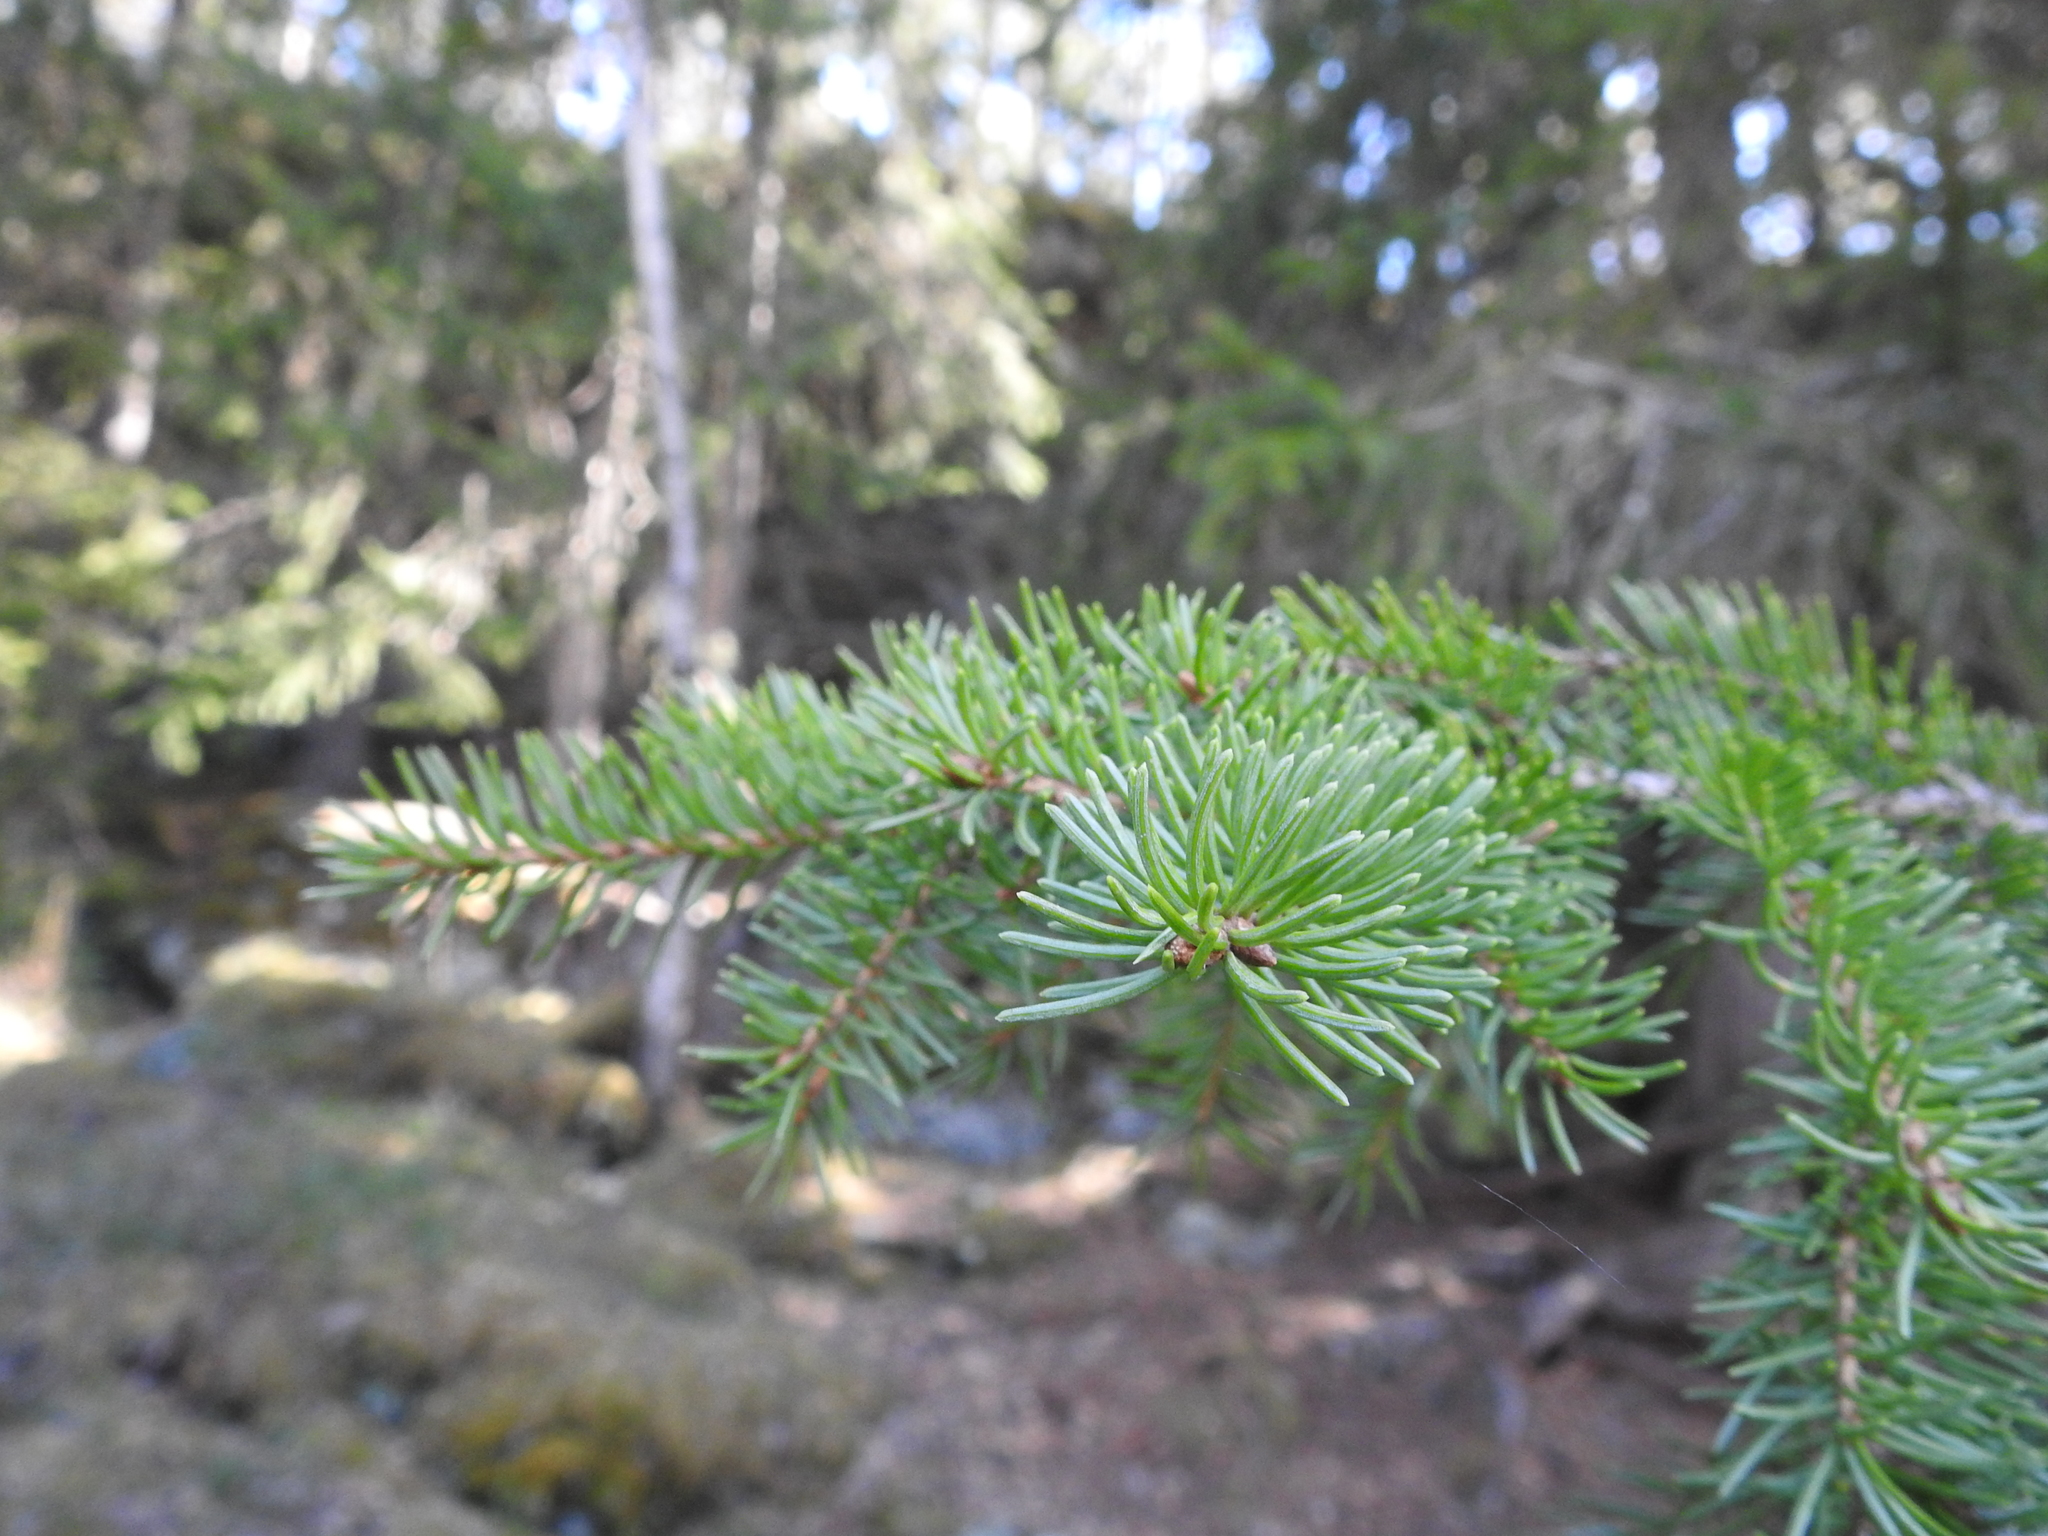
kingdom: Plantae
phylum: Tracheophyta
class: Pinopsida
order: Pinales
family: Pinaceae
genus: Picea
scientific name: Picea abies
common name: Norway spruce
